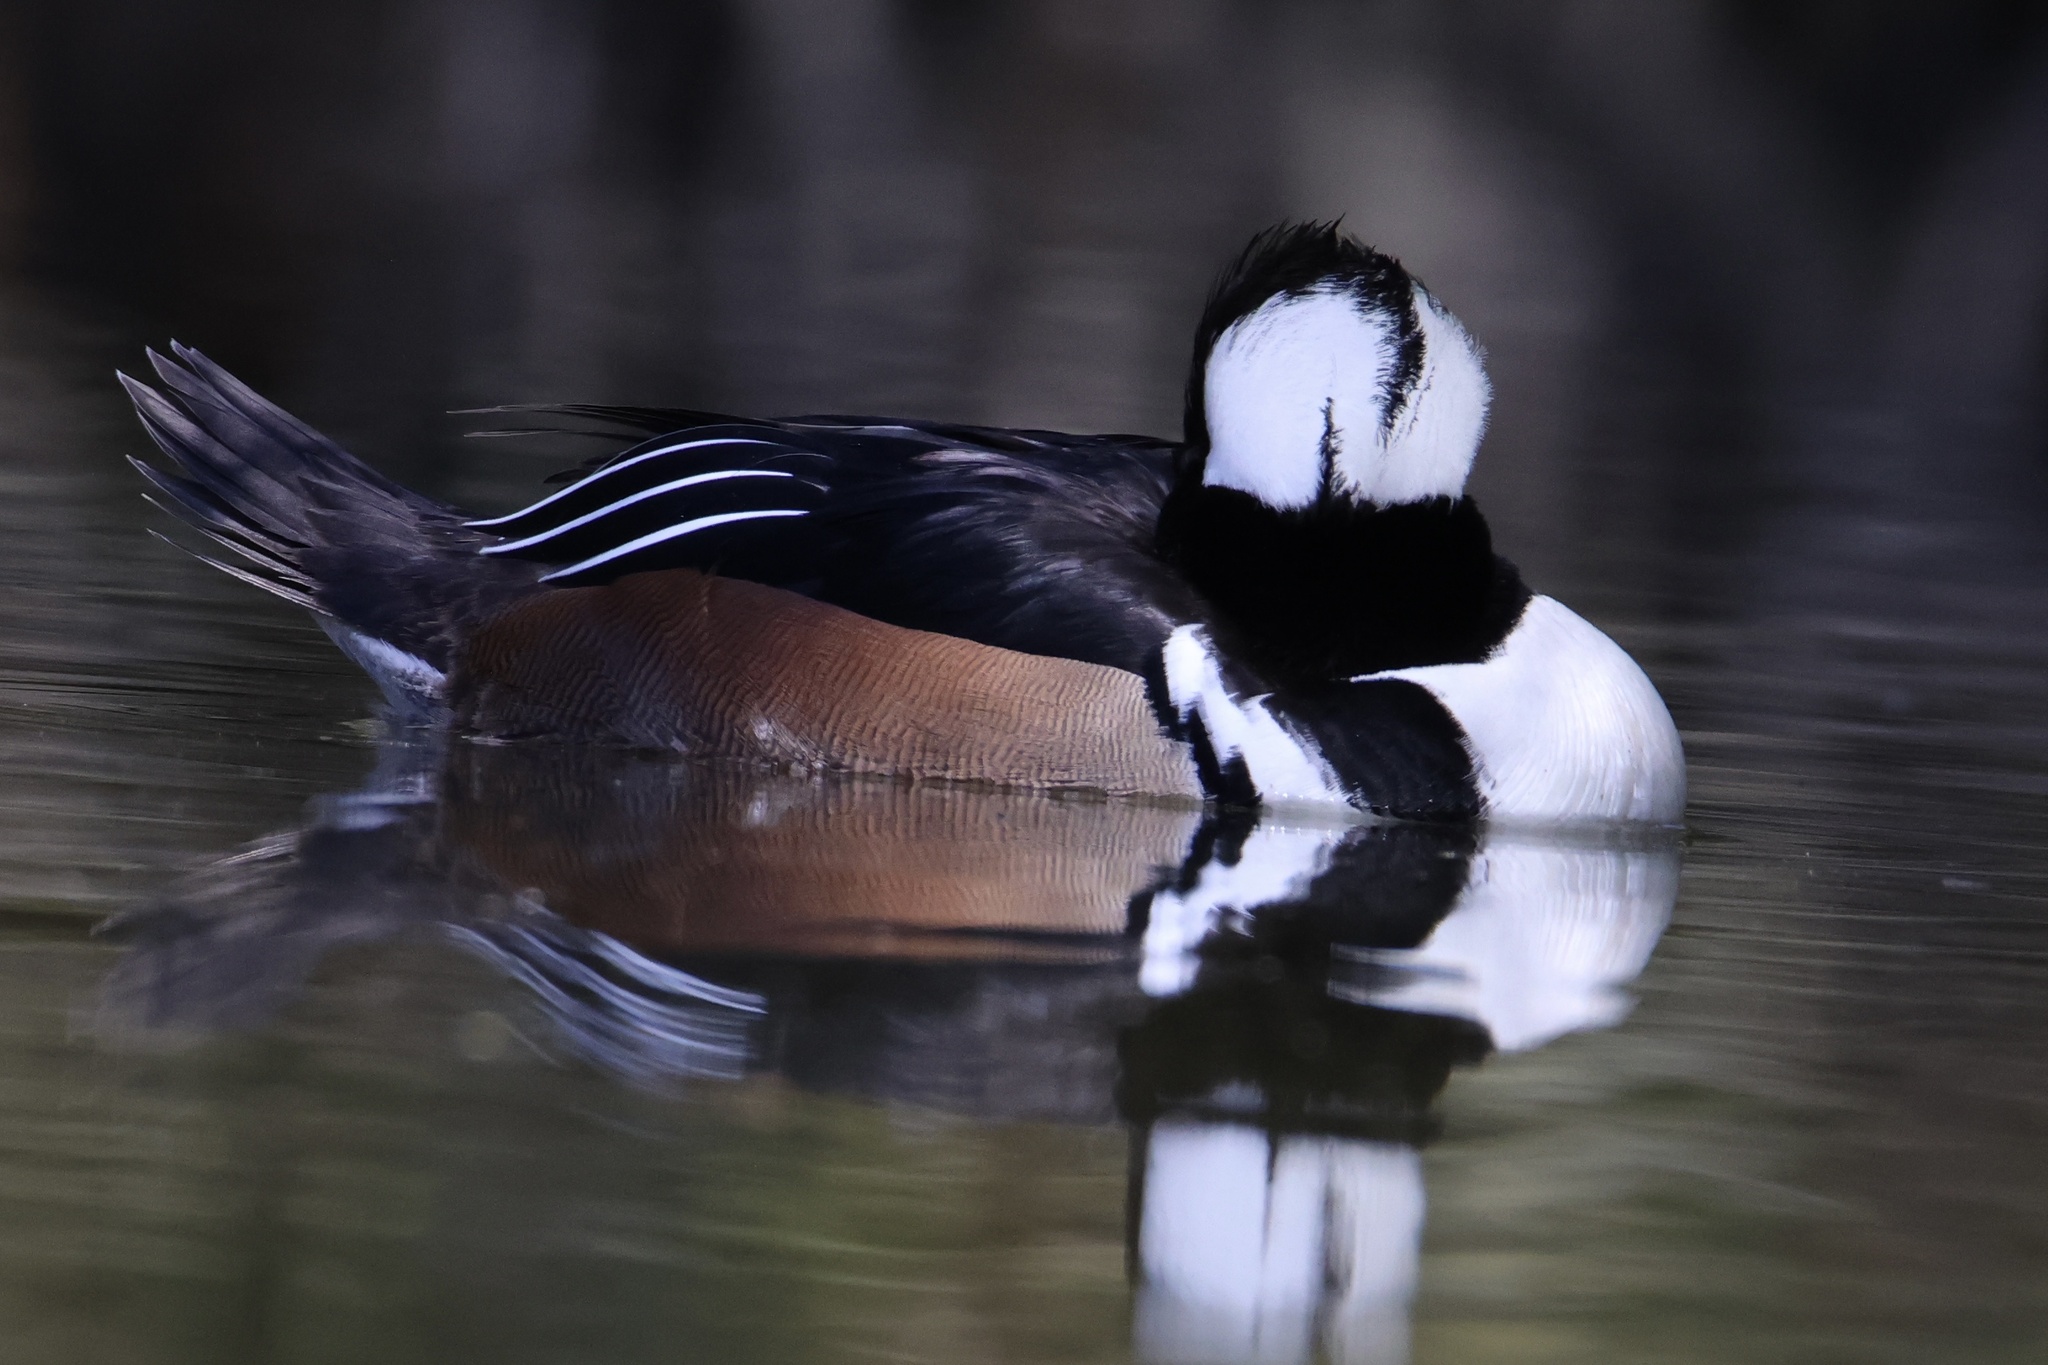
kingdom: Animalia
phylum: Chordata
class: Aves
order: Anseriformes
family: Anatidae
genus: Lophodytes
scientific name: Lophodytes cucullatus
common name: Hooded merganser
